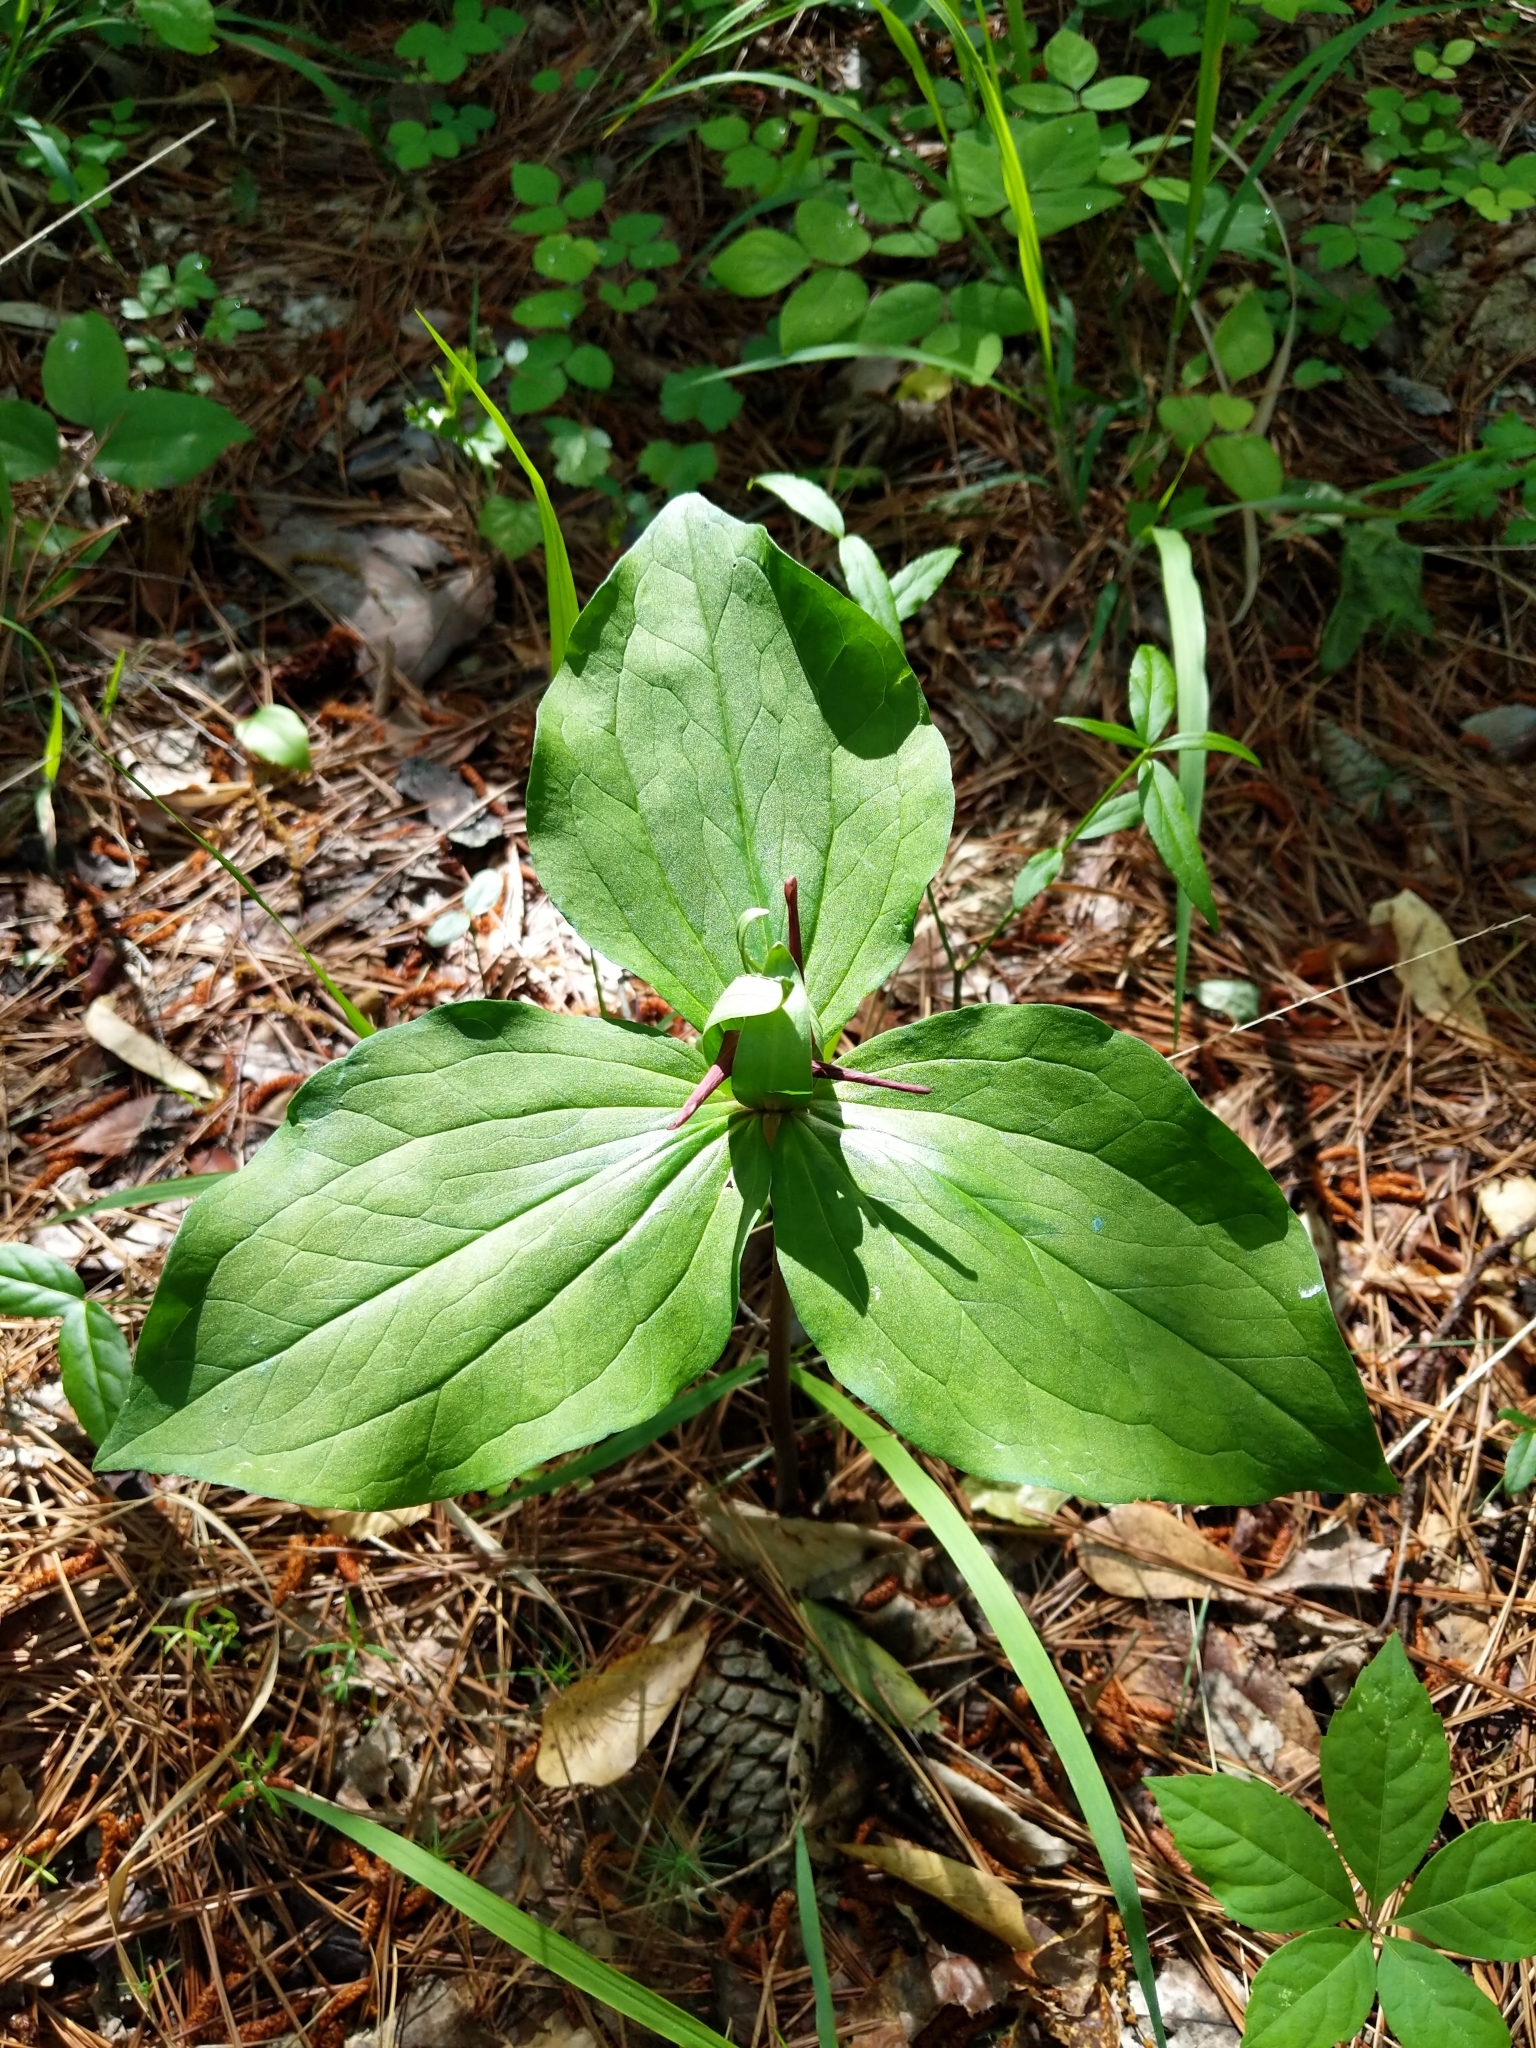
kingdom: Plantae
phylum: Tracheophyta
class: Liliopsida
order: Liliales
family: Melanthiaceae
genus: Trillium
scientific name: Trillium stamineum
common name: Blue ridge wakerobin
